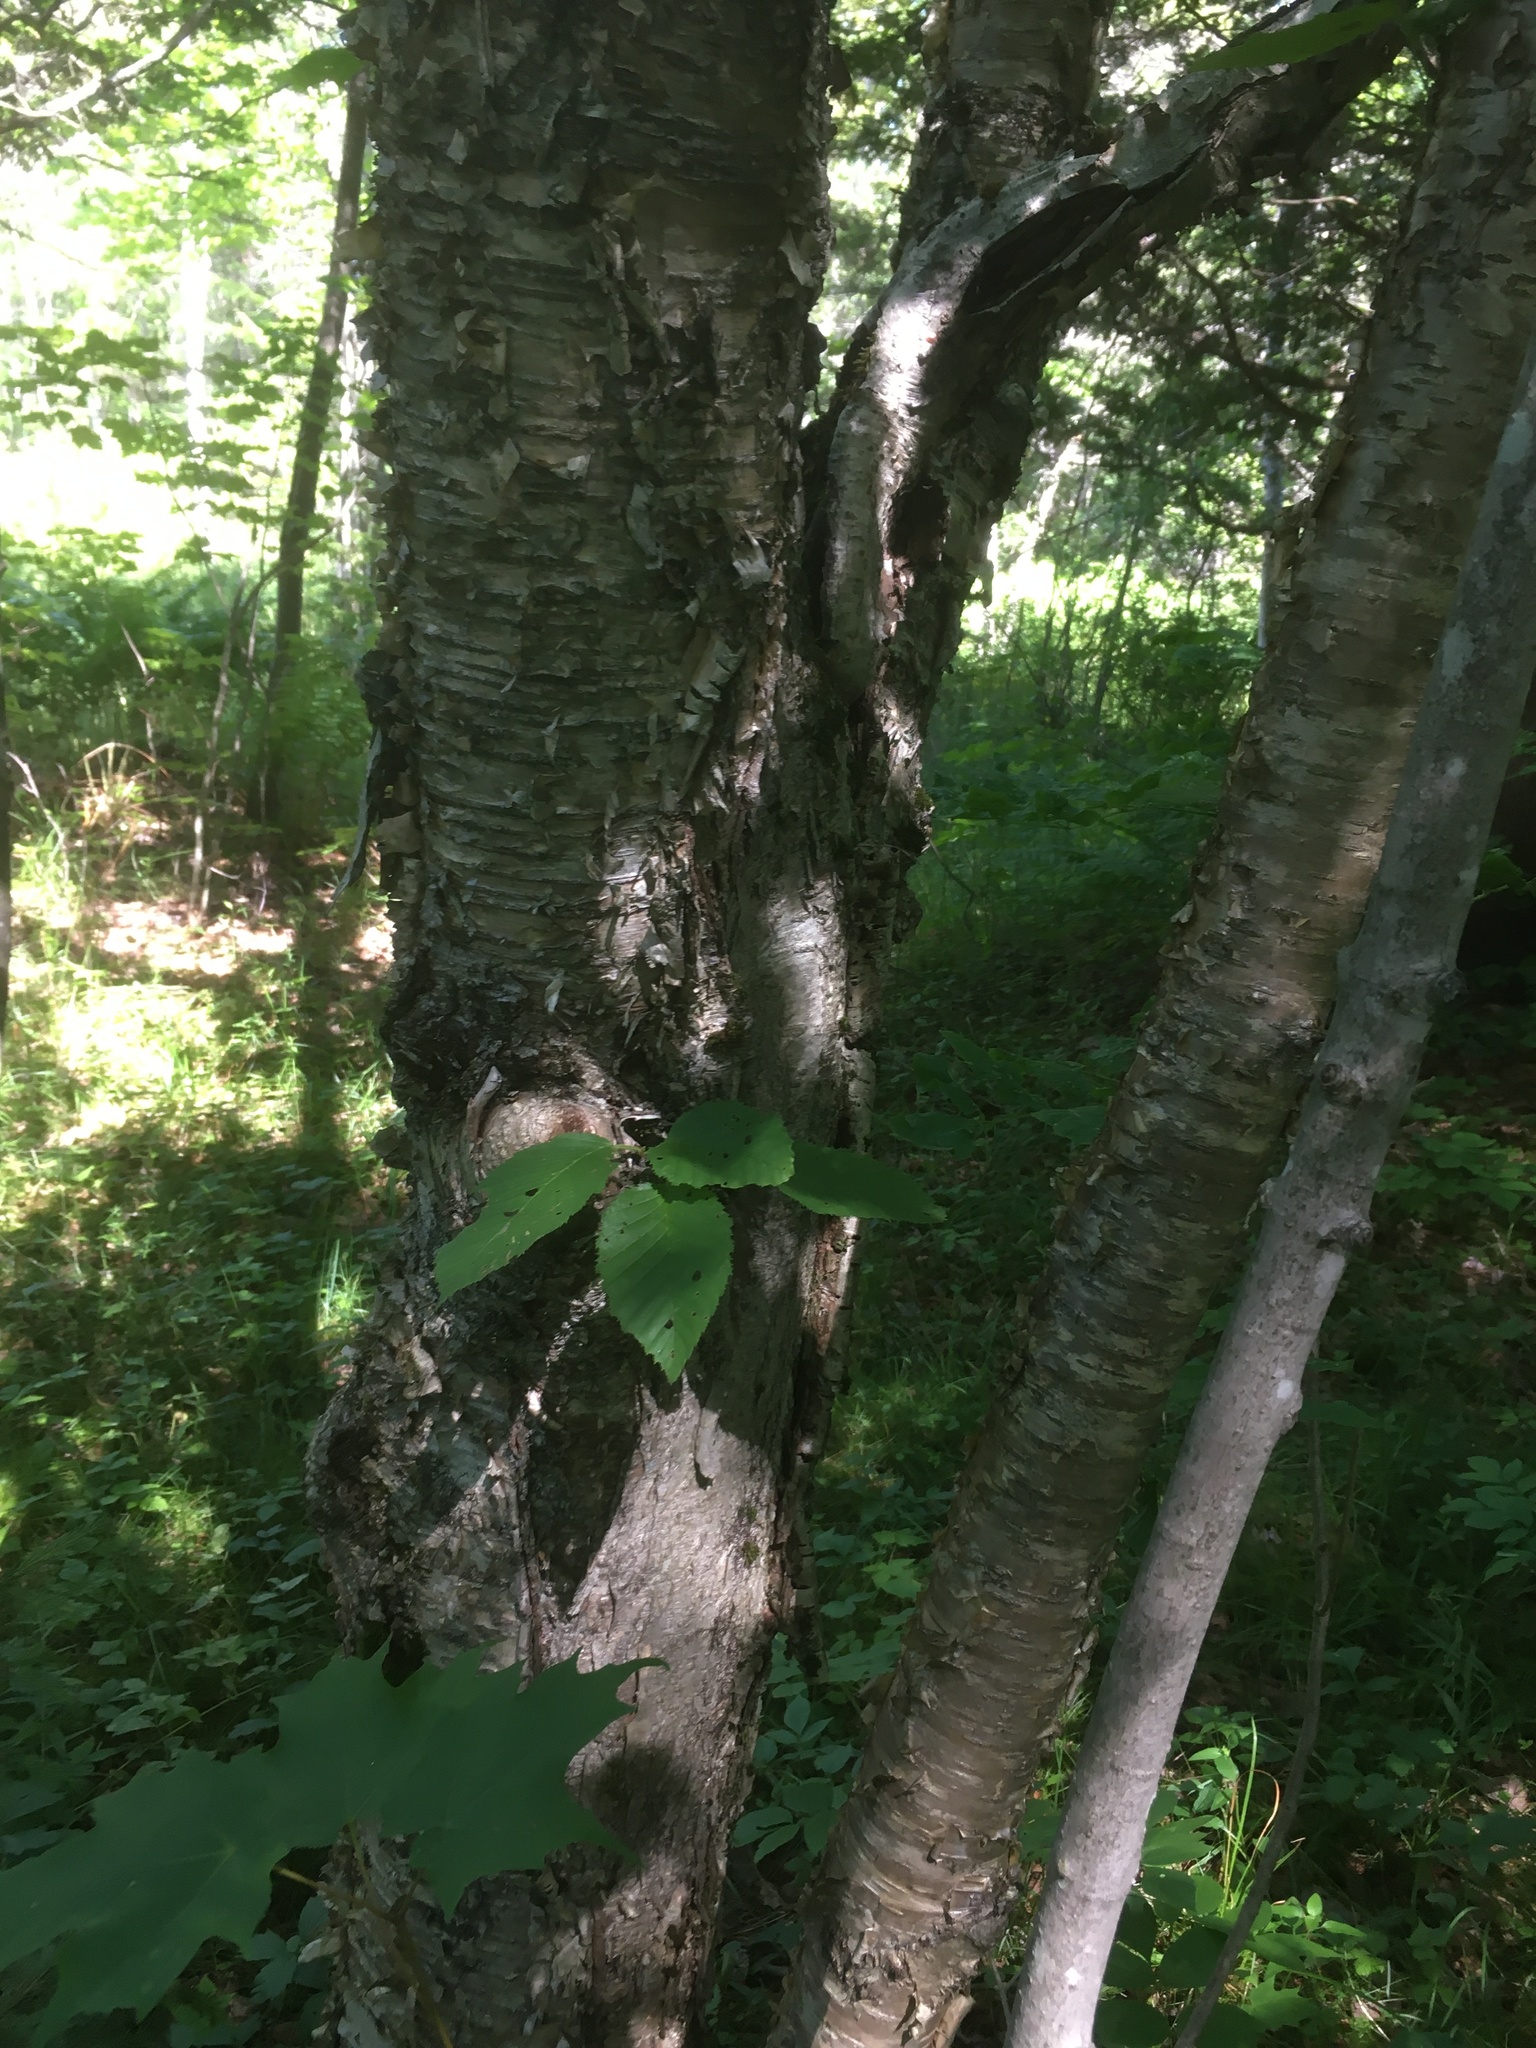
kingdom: Plantae
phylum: Tracheophyta
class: Magnoliopsida
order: Fagales
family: Betulaceae
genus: Betula
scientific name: Betula alleghaniensis
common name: Yellow birch
